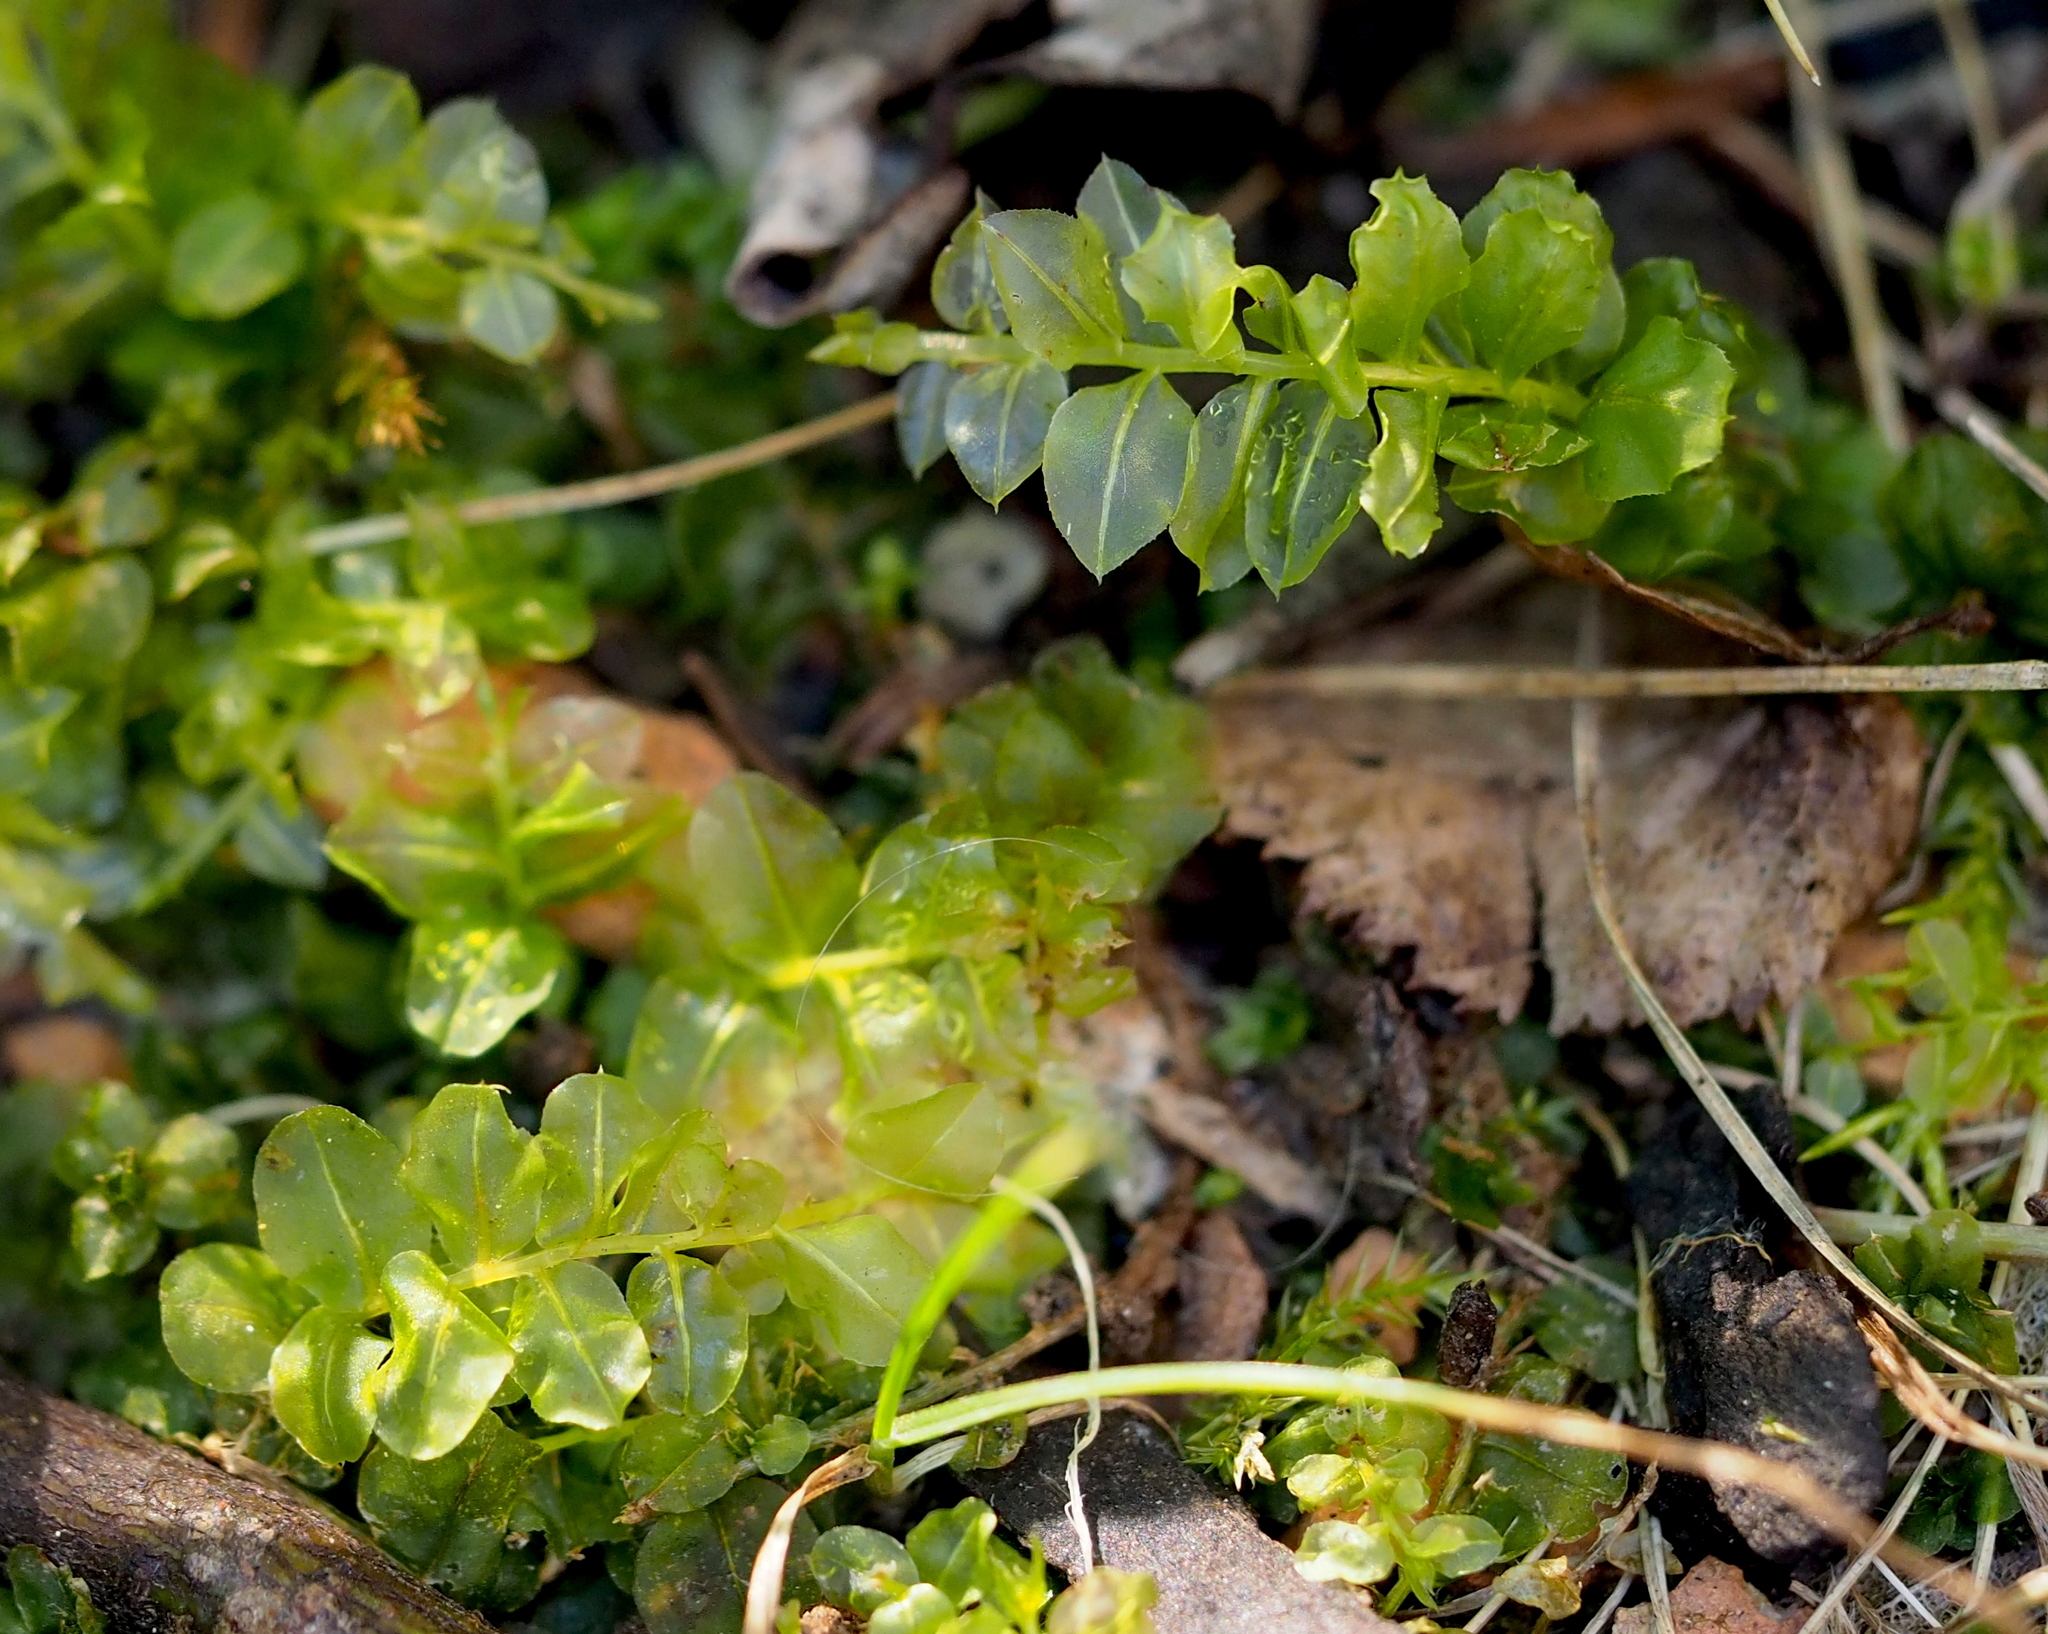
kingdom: Plantae
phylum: Bryophyta
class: Bryopsida
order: Bryales
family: Mniaceae
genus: Plagiomnium
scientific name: Plagiomnium affine
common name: Many-fruited thyme-moss
